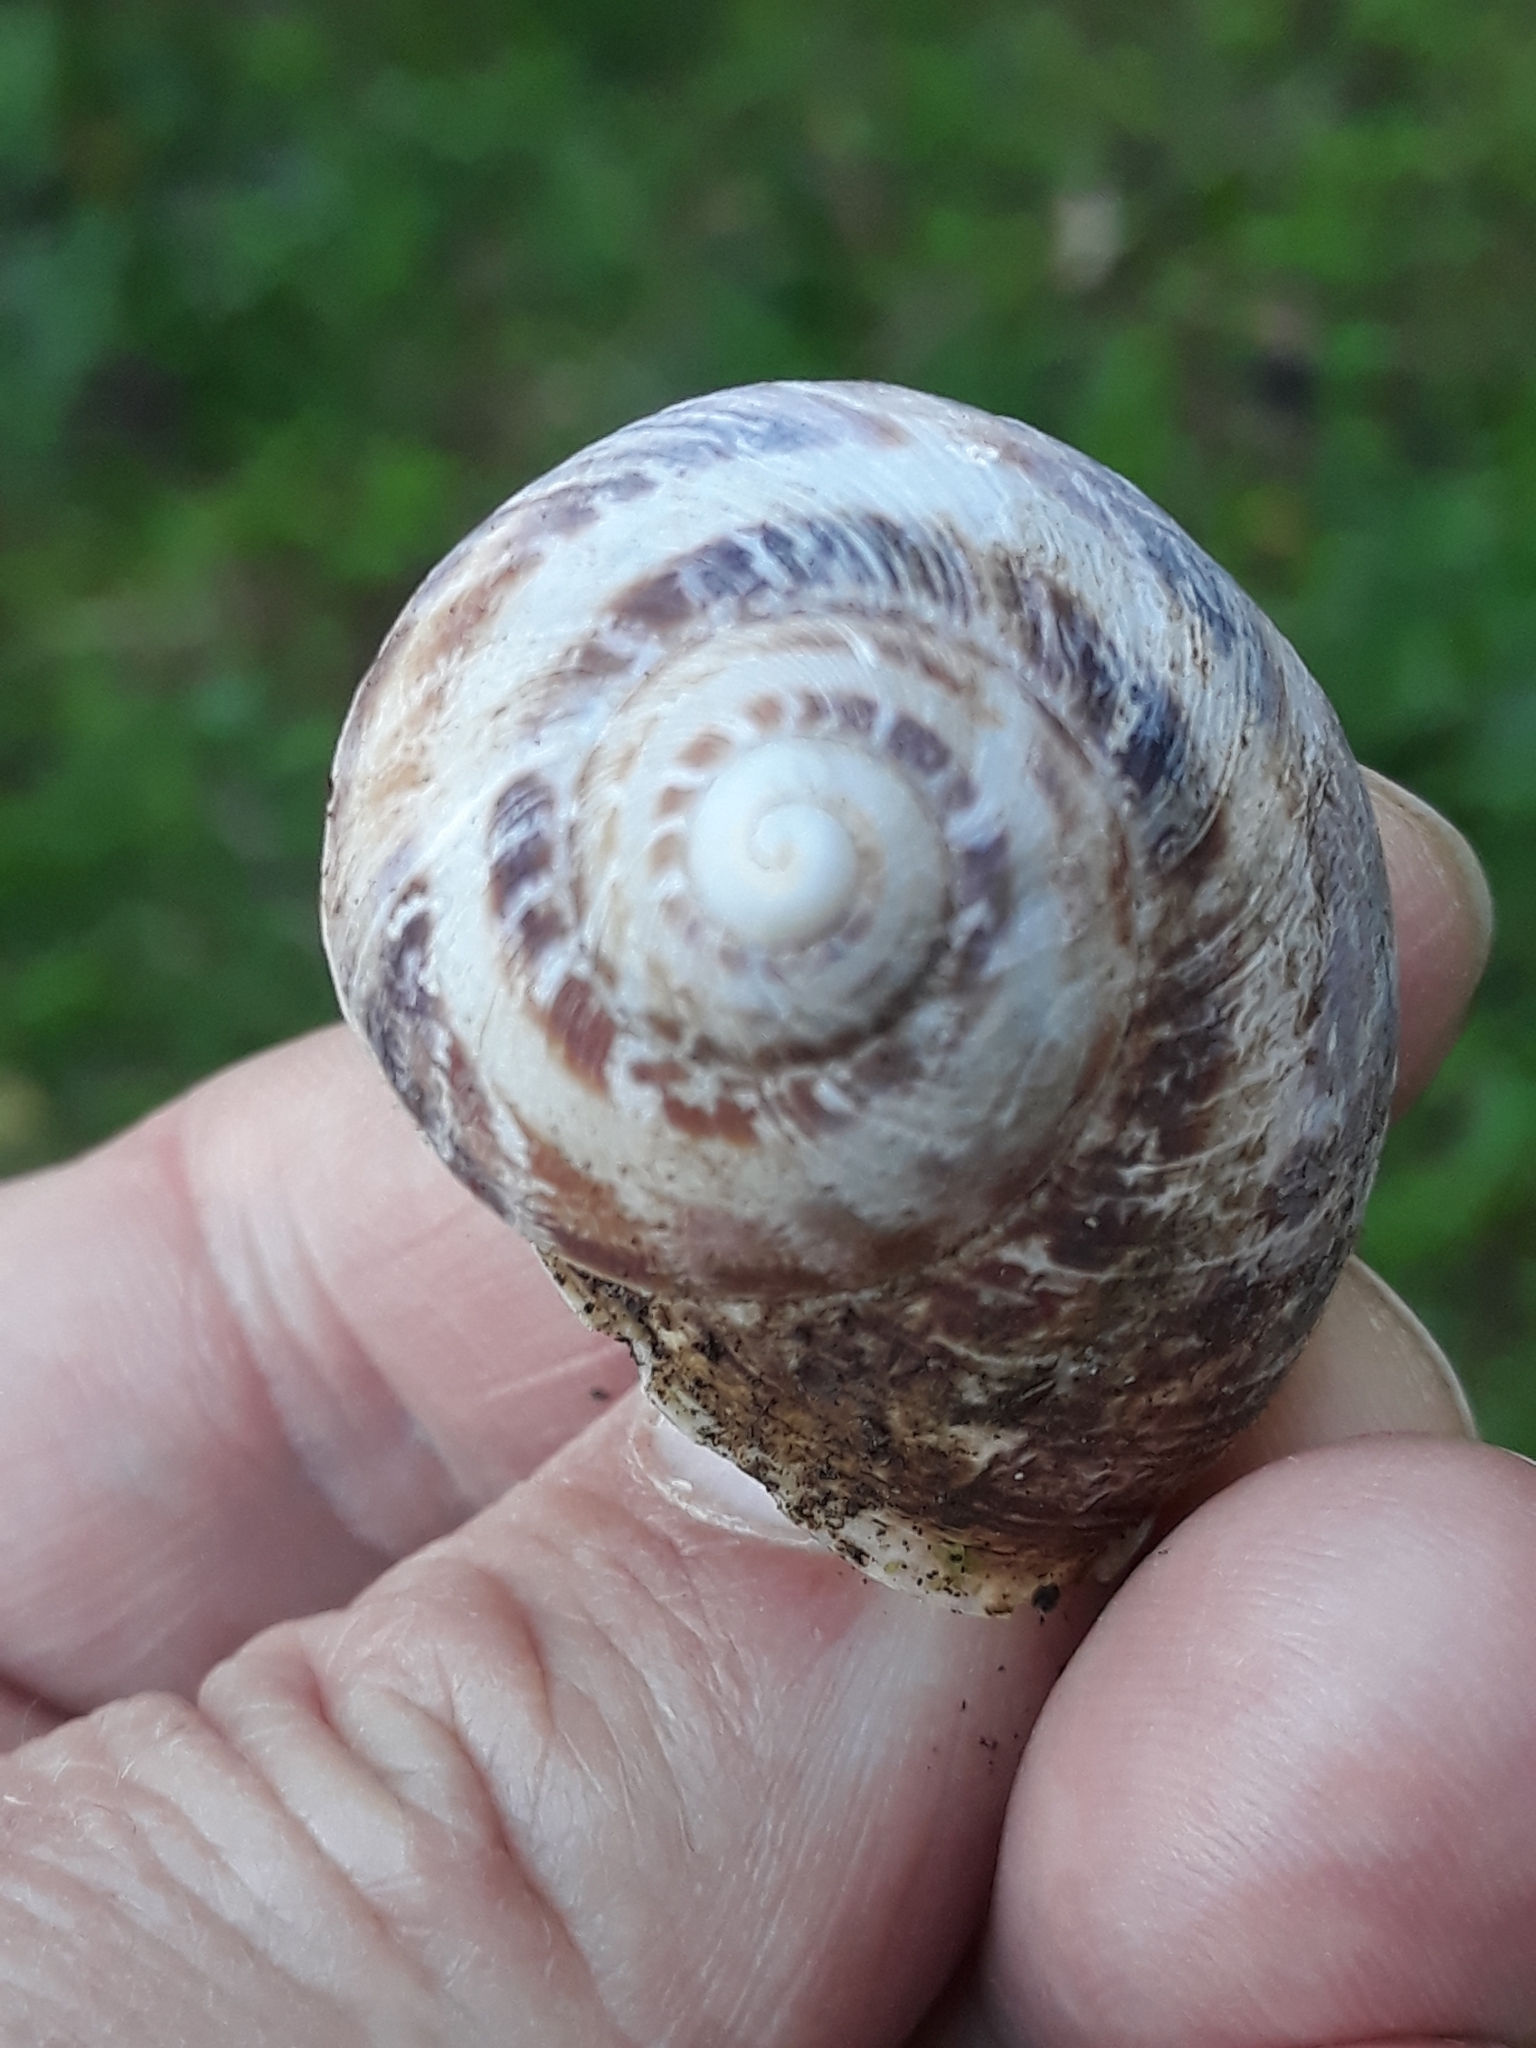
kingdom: Animalia
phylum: Mollusca
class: Gastropoda
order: Stylommatophora
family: Helicidae
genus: Cornu
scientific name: Cornu aspersum
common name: Brown garden snail
